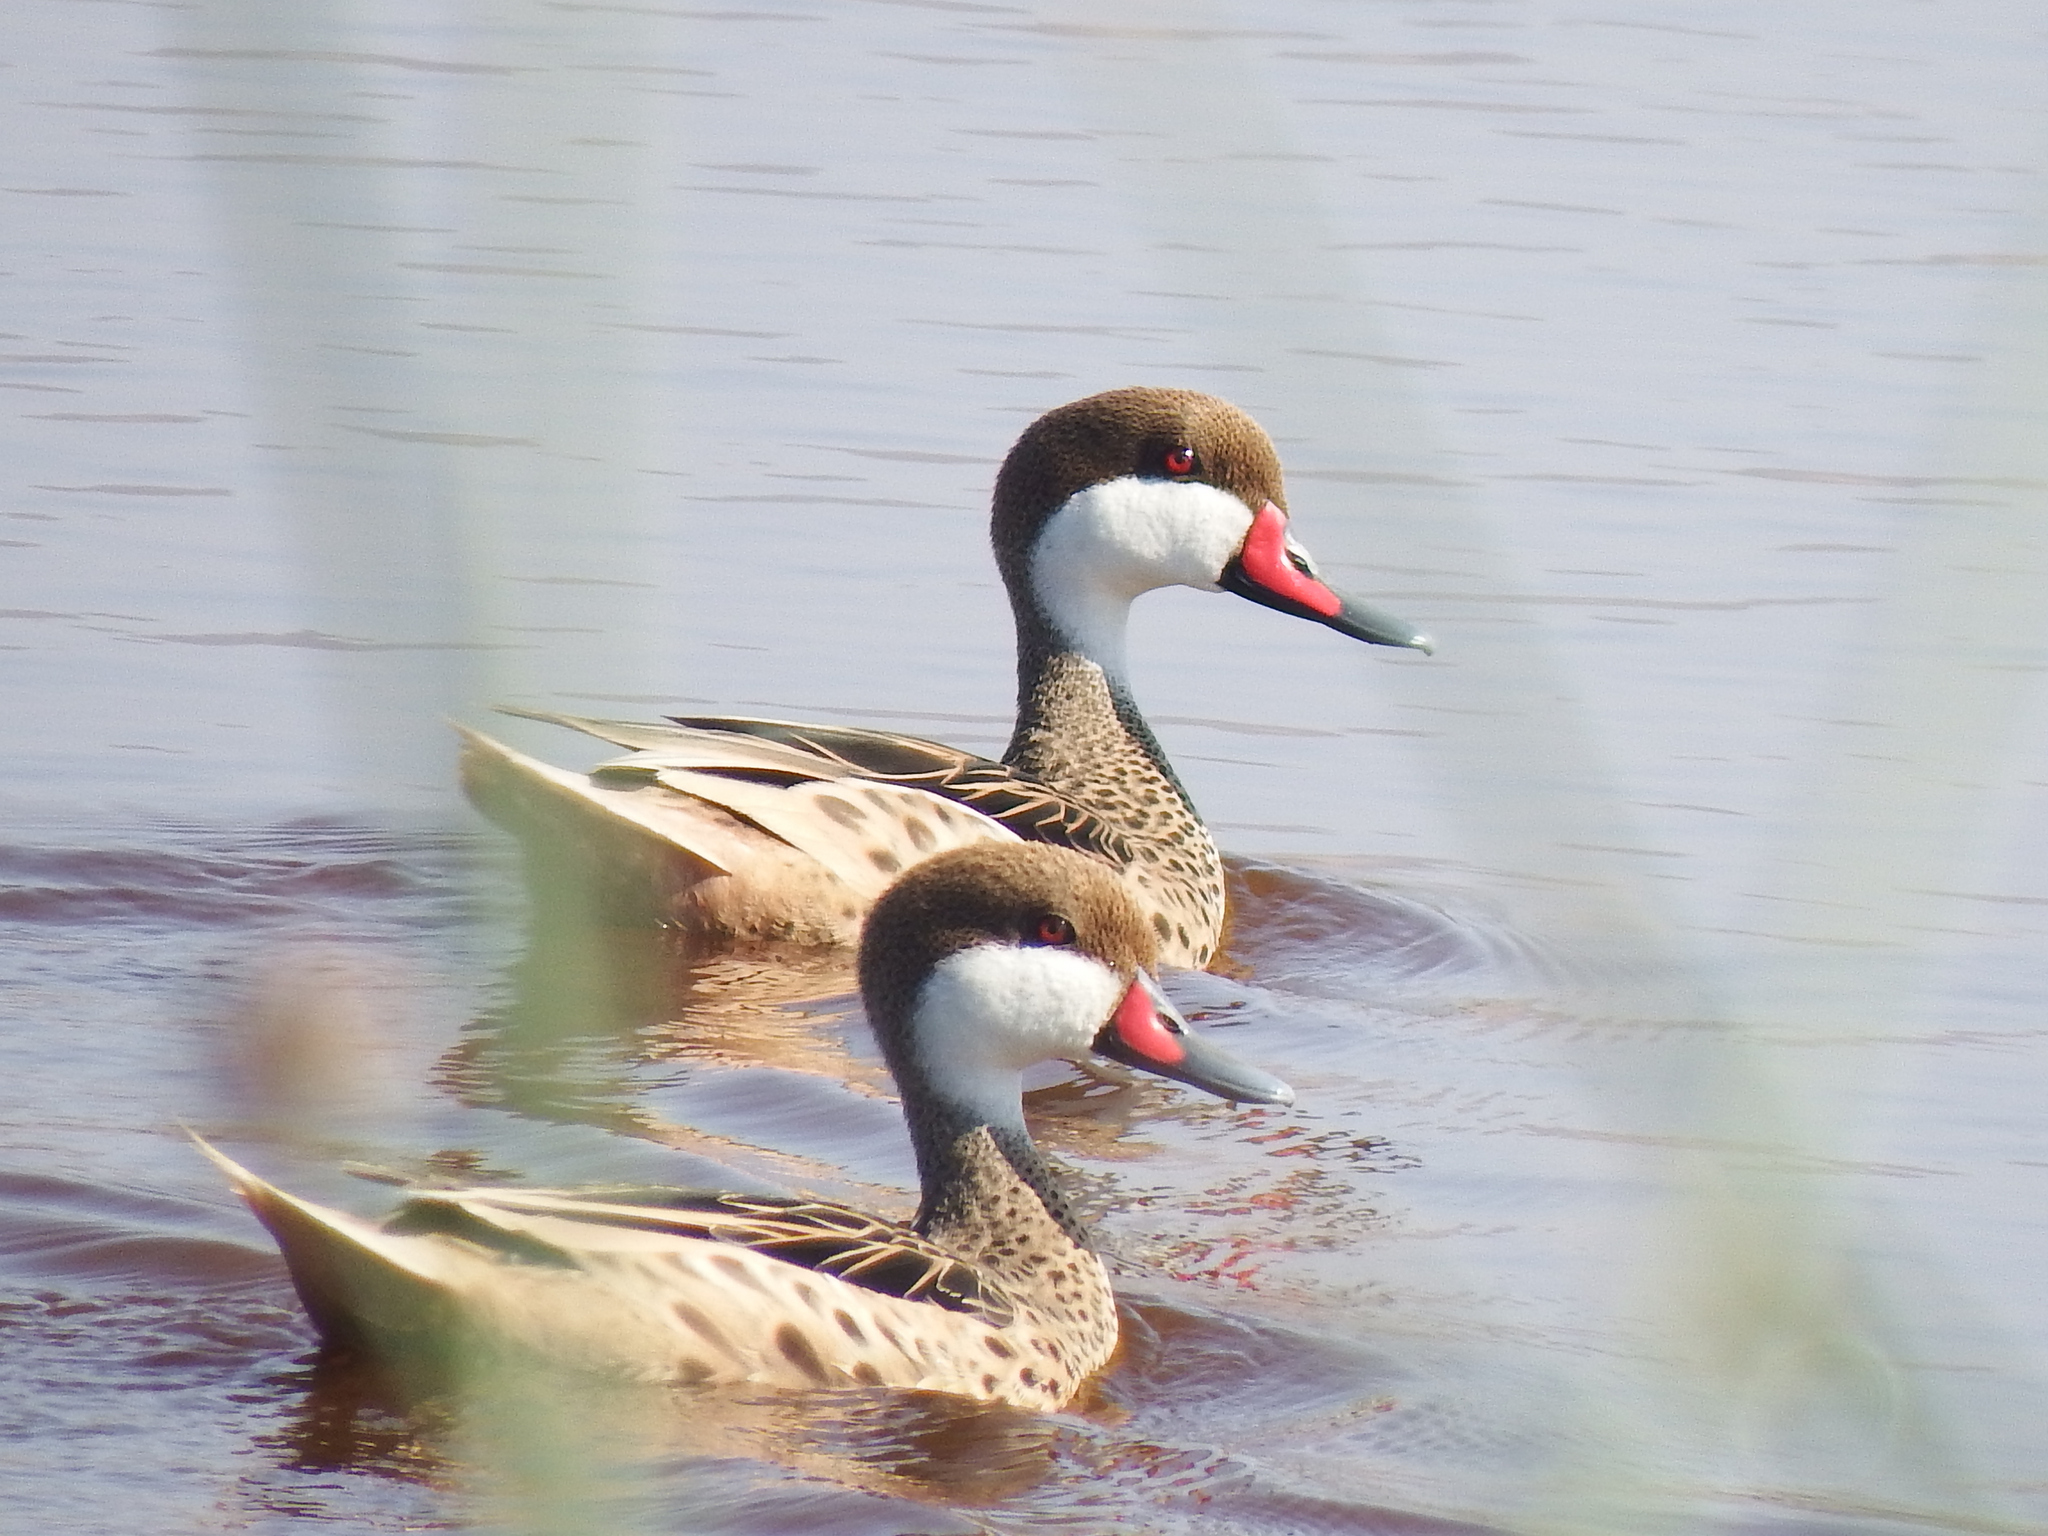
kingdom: Animalia
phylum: Chordata
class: Aves
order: Anseriformes
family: Anatidae
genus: Anas
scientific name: Anas bahamensis
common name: White-cheeked pintail
